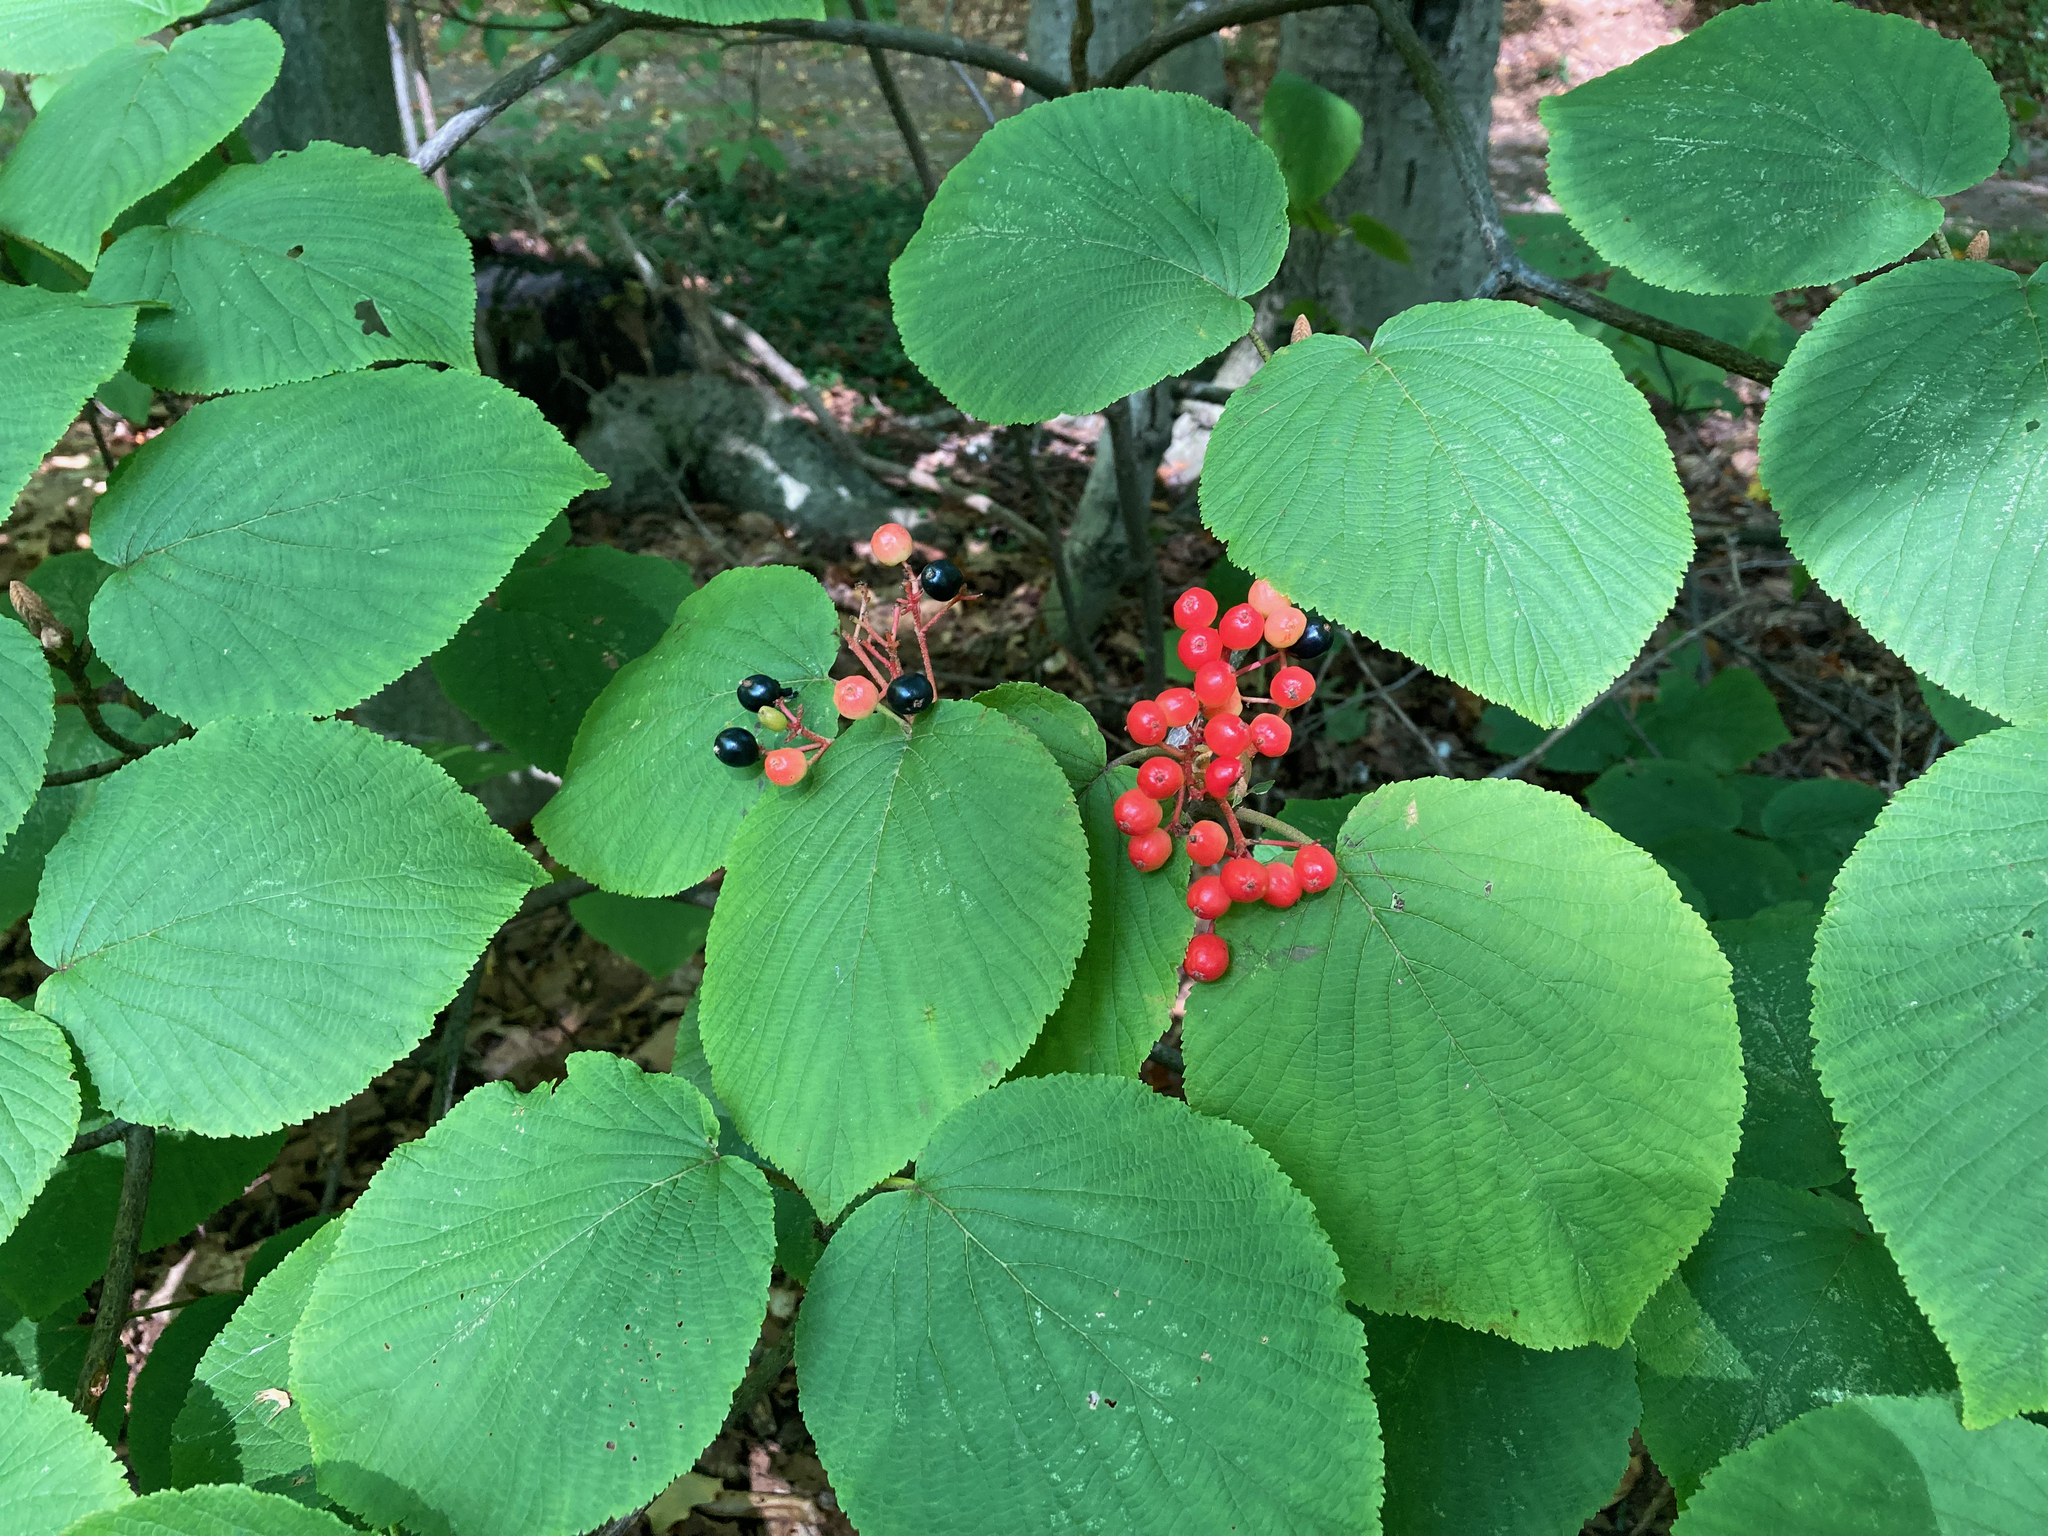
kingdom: Plantae
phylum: Tracheophyta
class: Magnoliopsida
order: Dipsacales
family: Viburnaceae
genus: Viburnum
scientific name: Viburnum lantanoides
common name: Hobblebush
